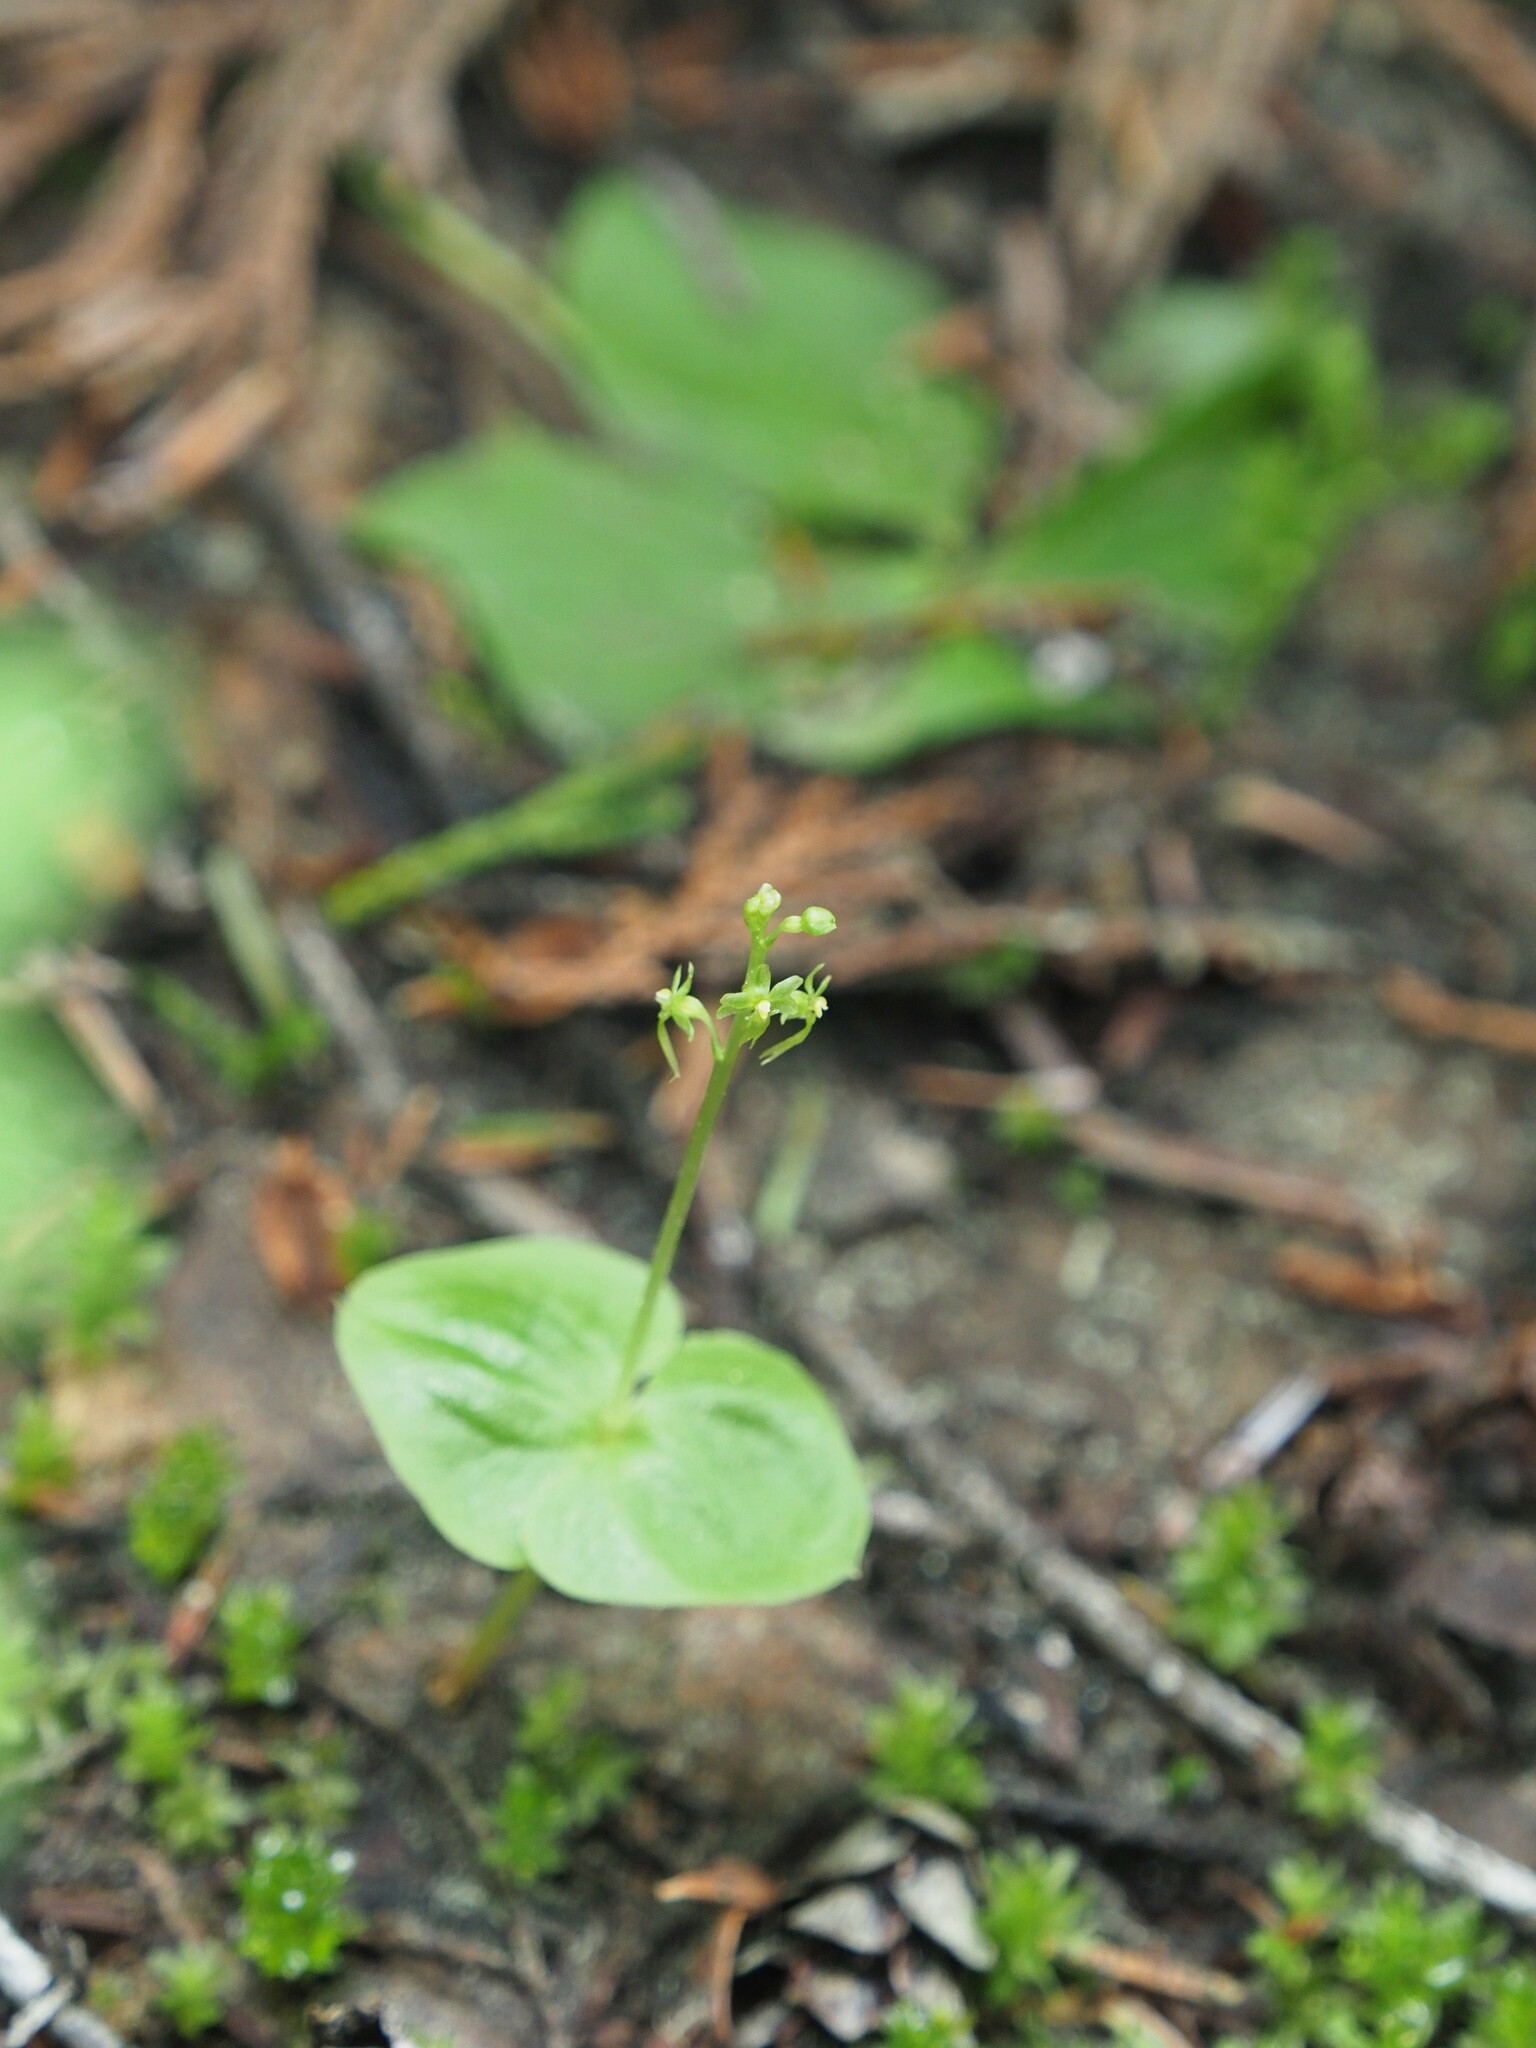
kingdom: Plantae
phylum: Tracheophyta
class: Liliopsida
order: Asparagales
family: Orchidaceae
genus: Neottia
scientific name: Neottia cordata
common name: Lesser twayblade
